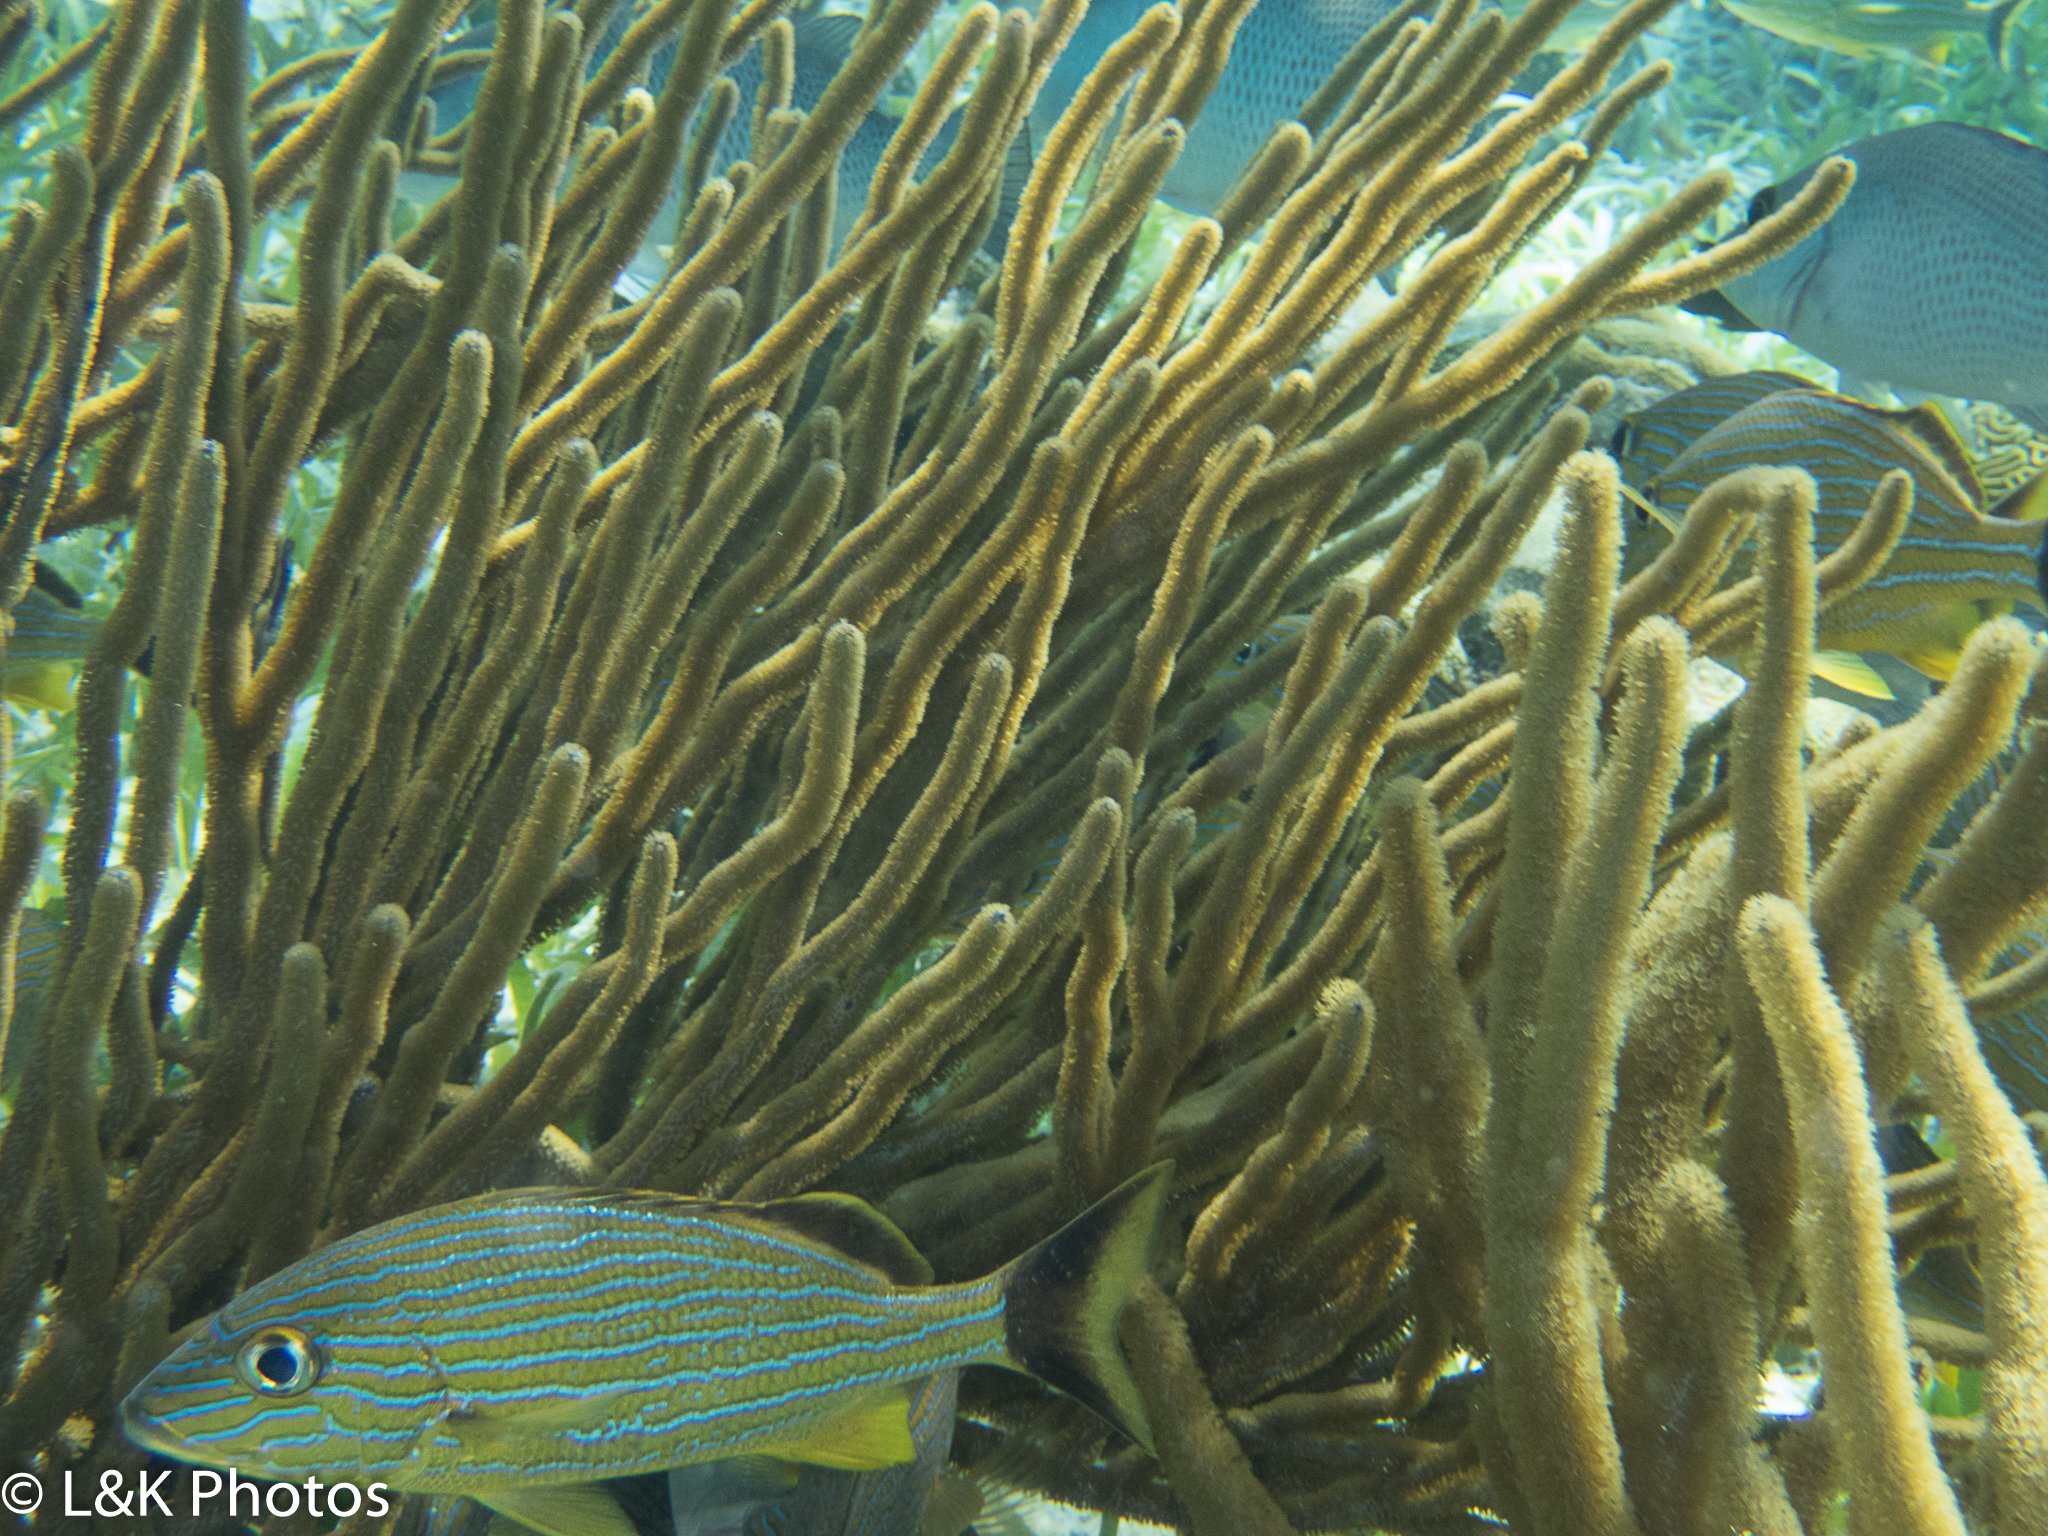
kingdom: Animalia
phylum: Chordata
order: Perciformes
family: Haemulidae
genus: Haemulon
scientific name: Haemulon sciurus
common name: Bluestriped grunt
